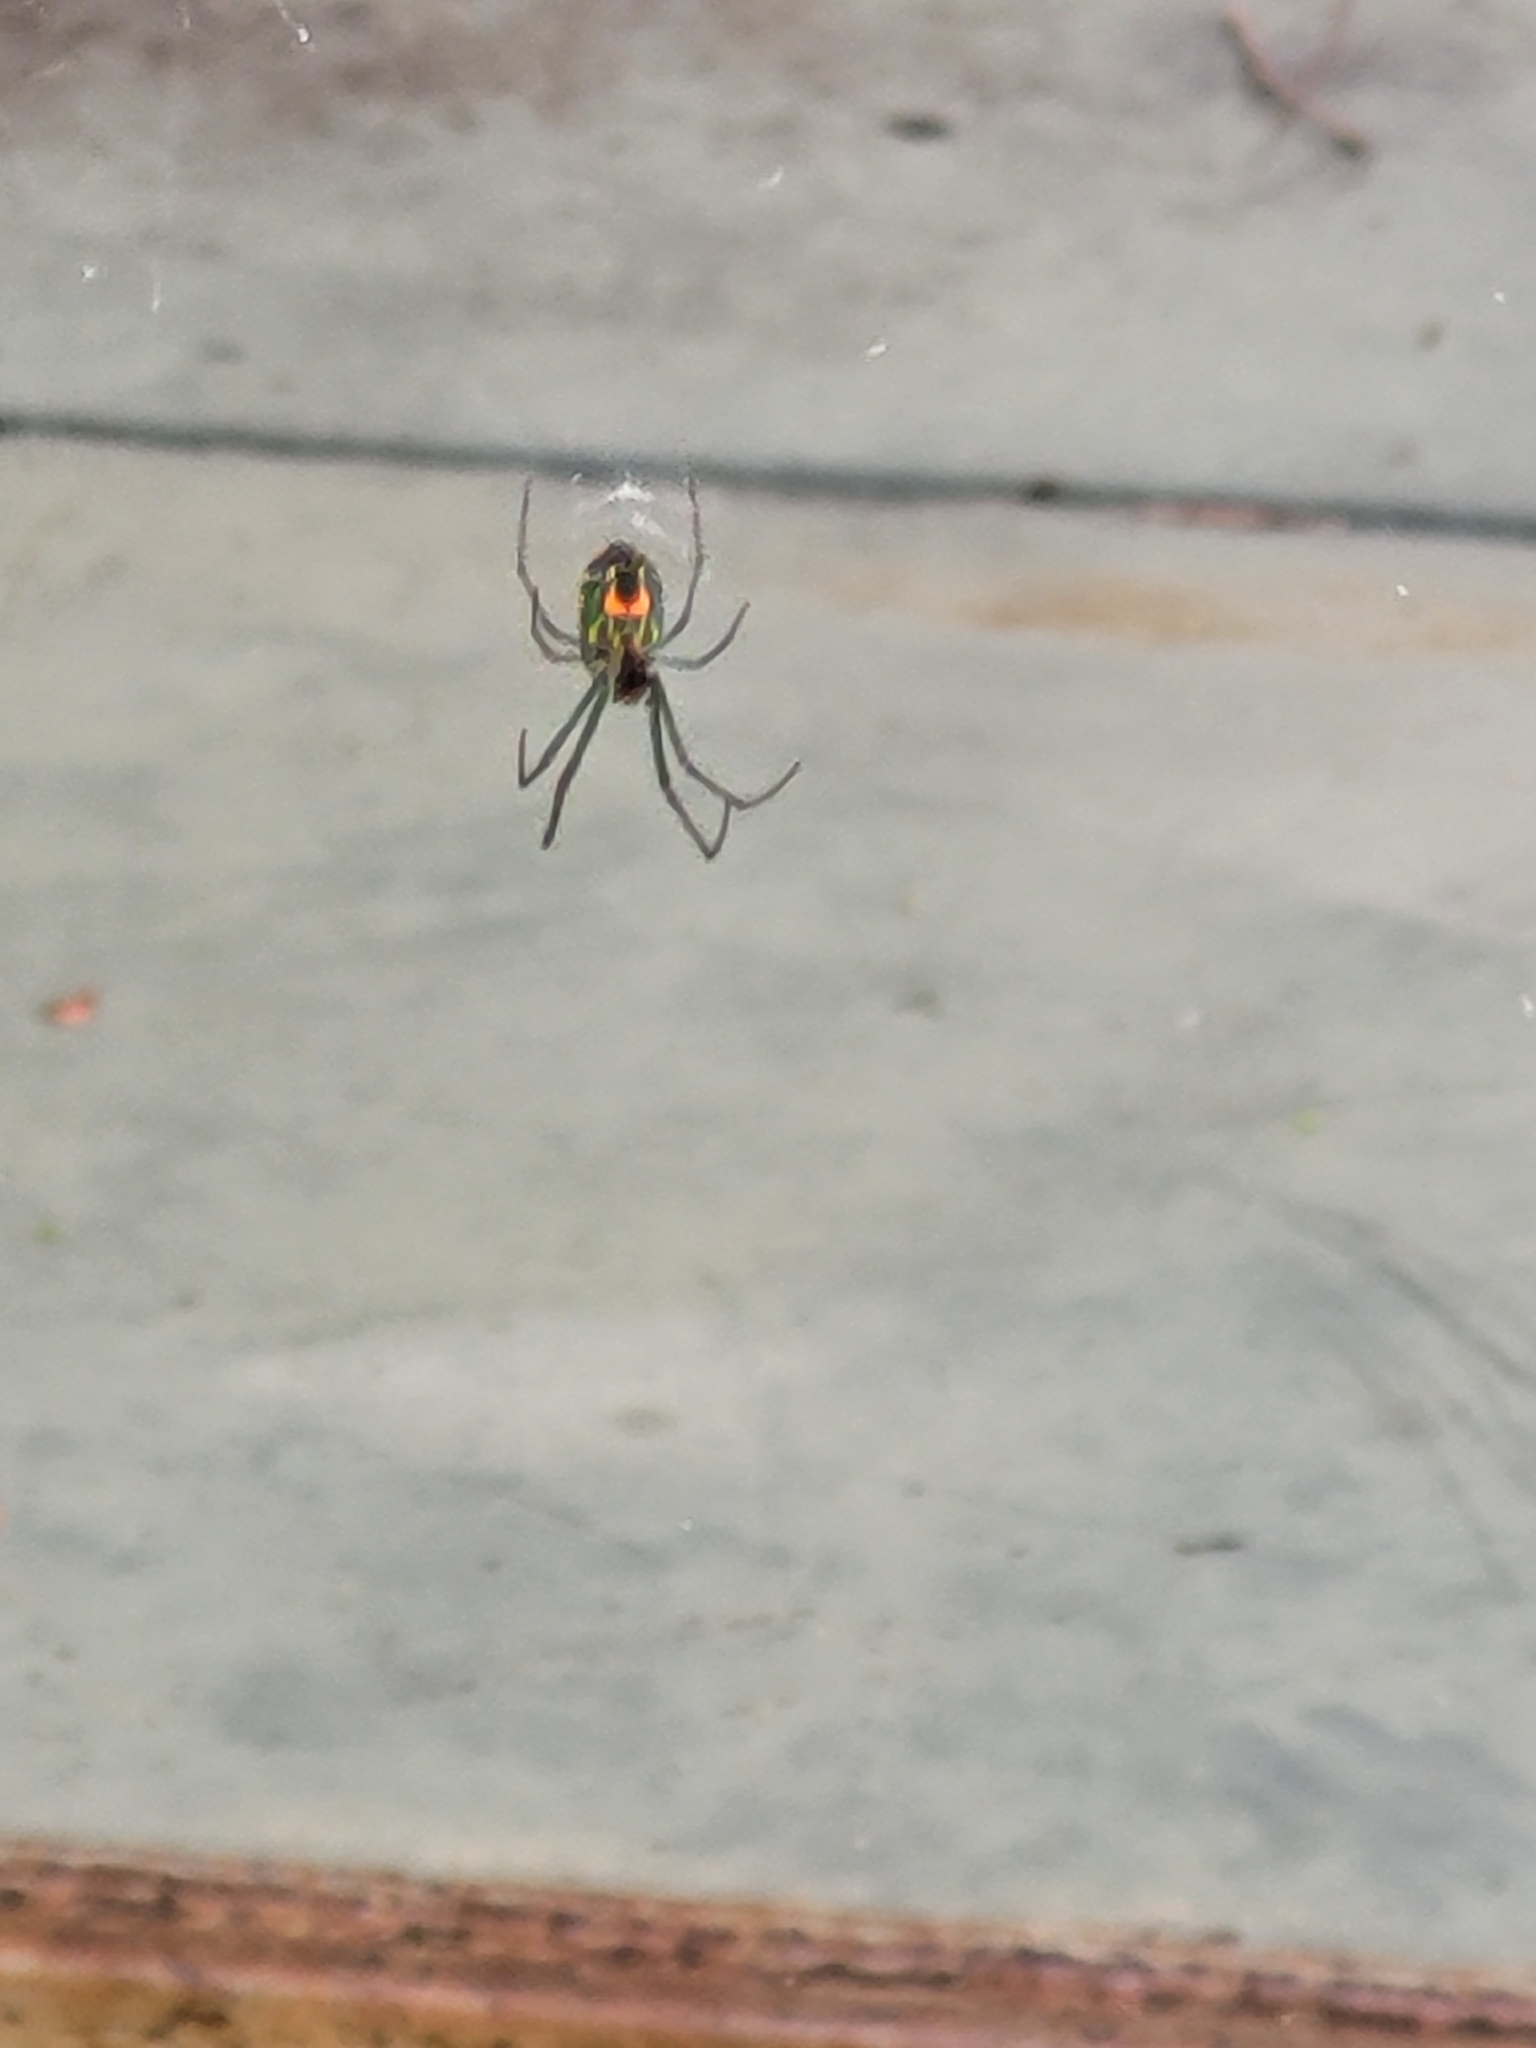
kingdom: Animalia
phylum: Arthropoda
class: Arachnida
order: Araneae
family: Tetragnathidae
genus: Leucauge
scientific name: Leucauge argyrobapta
